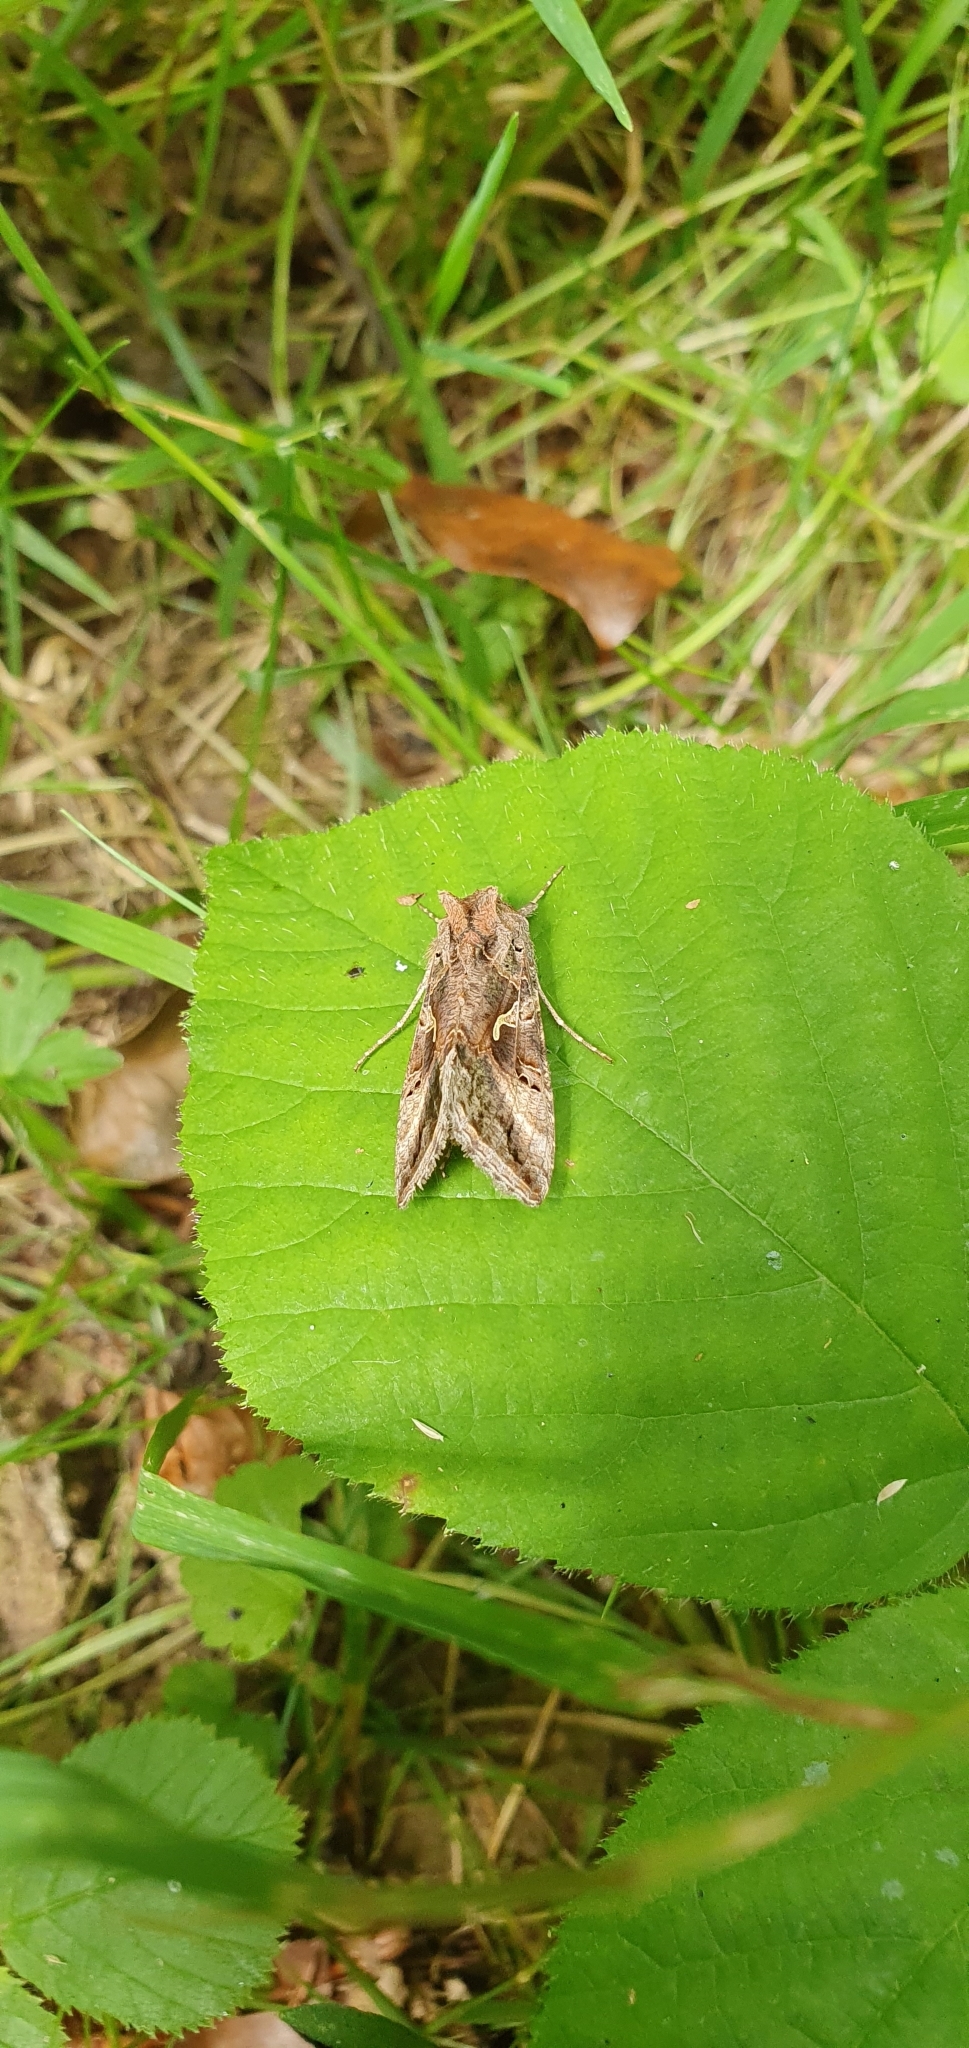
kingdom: Animalia
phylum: Arthropoda
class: Insecta
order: Lepidoptera
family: Noctuidae
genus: Autographa
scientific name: Autographa gamma
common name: Silver y
